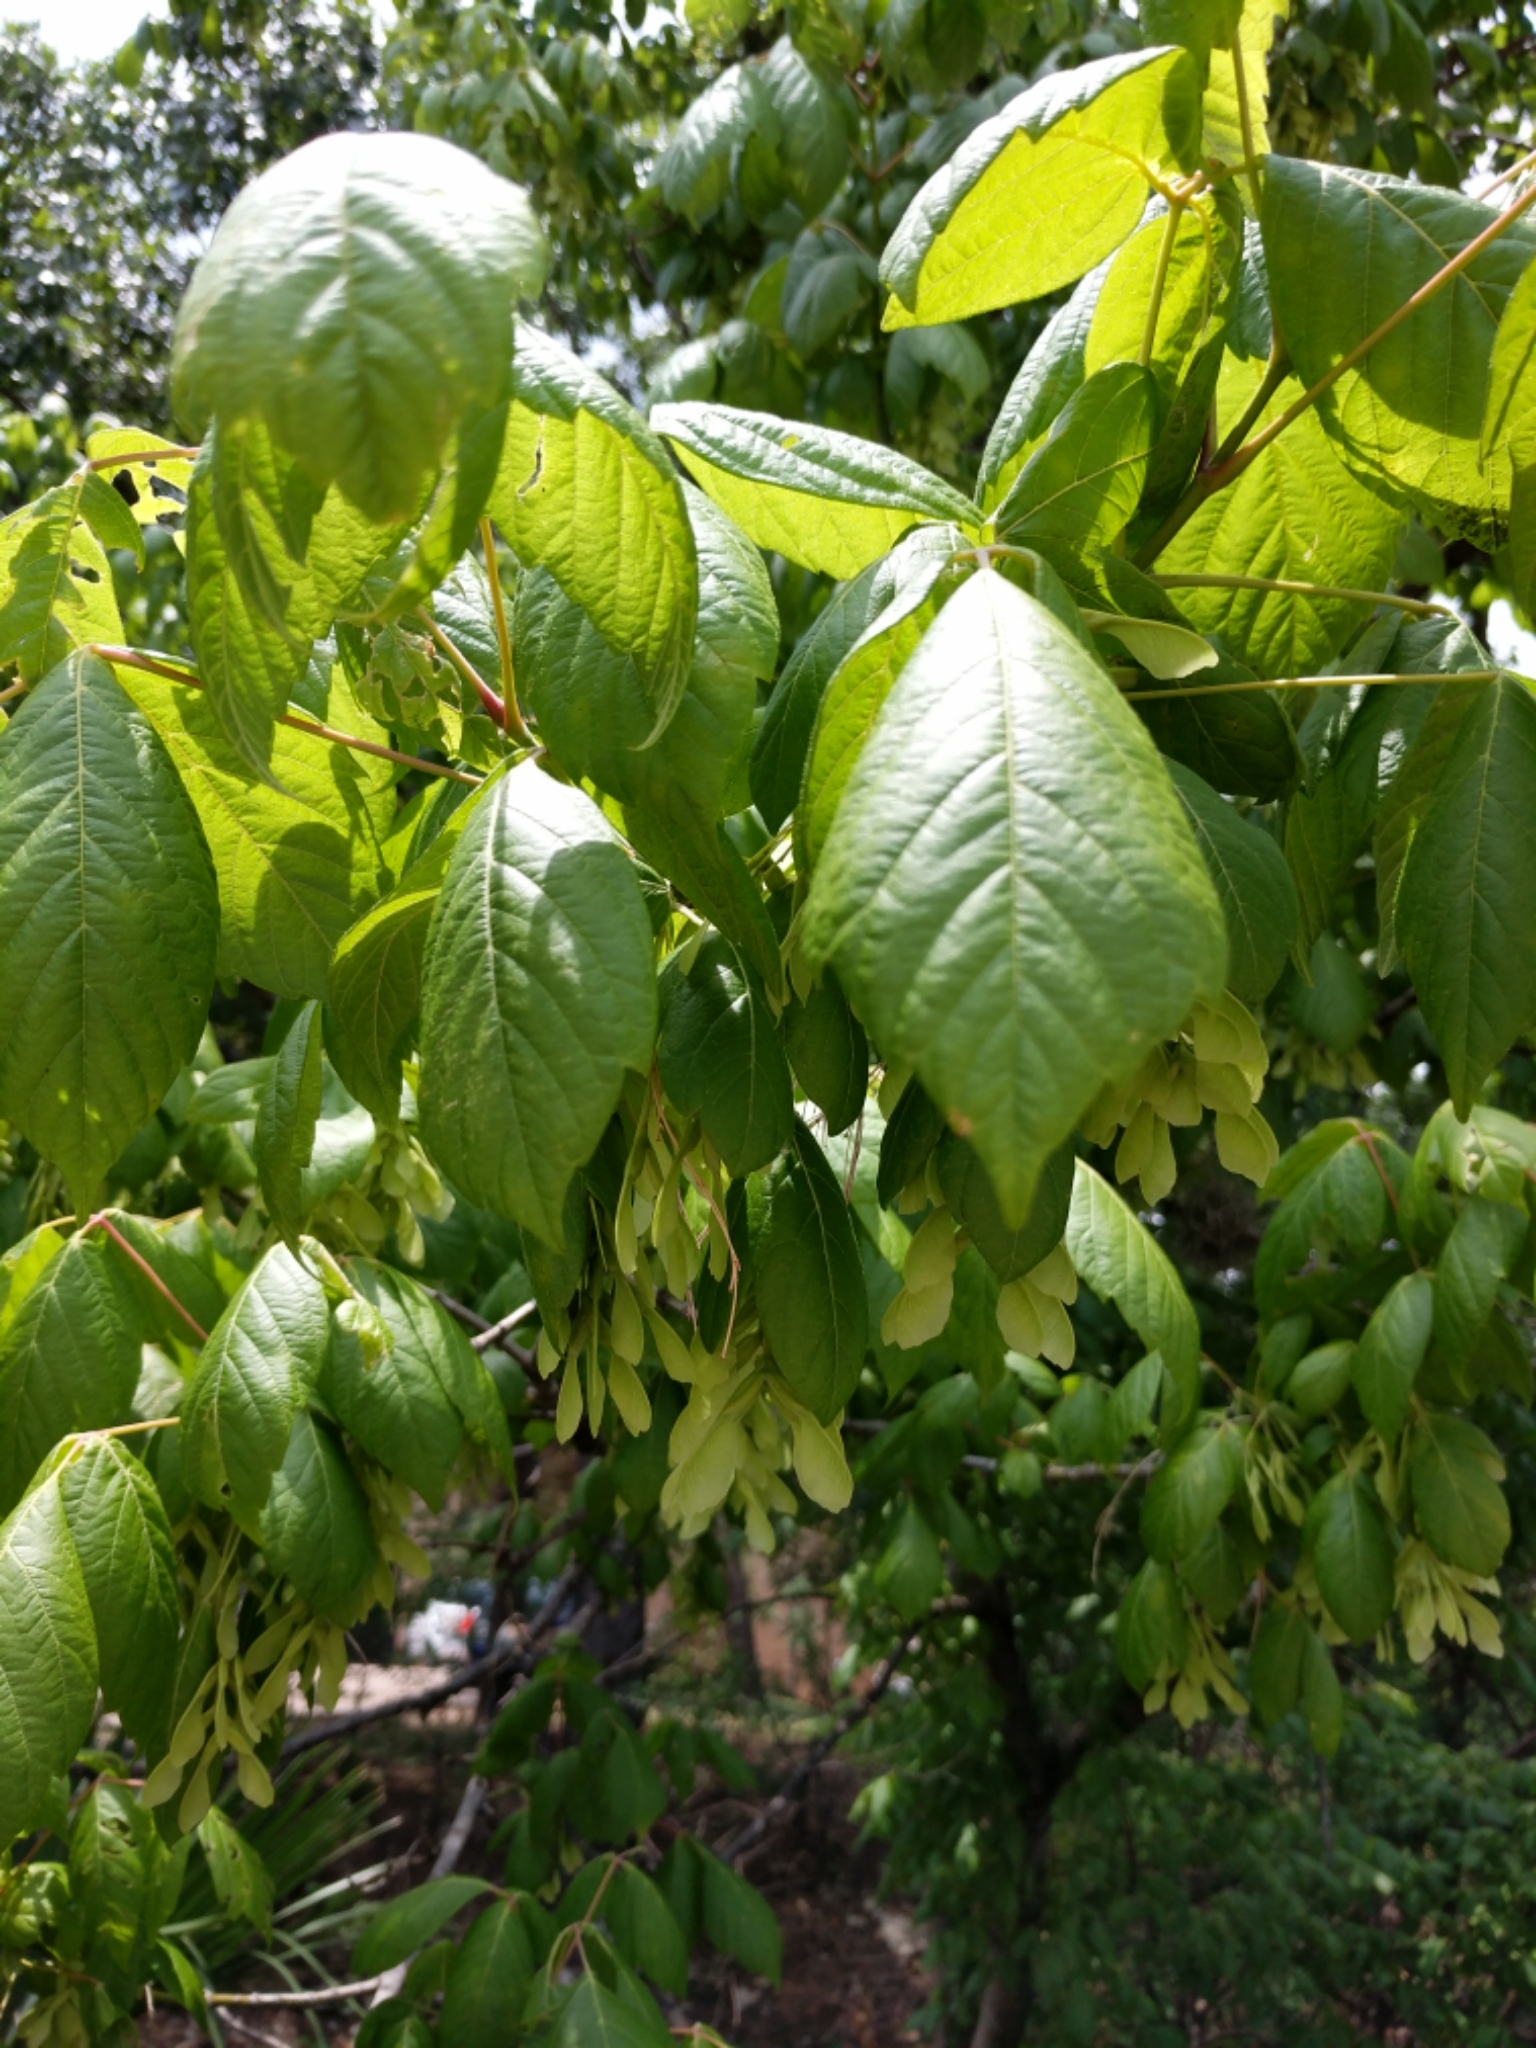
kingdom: Plantae
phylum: Tracheophyta
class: Magnoliopsida
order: Sapindales
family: Sapindaceae
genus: Acer
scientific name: Acer negundo
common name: Ashleaf maple
